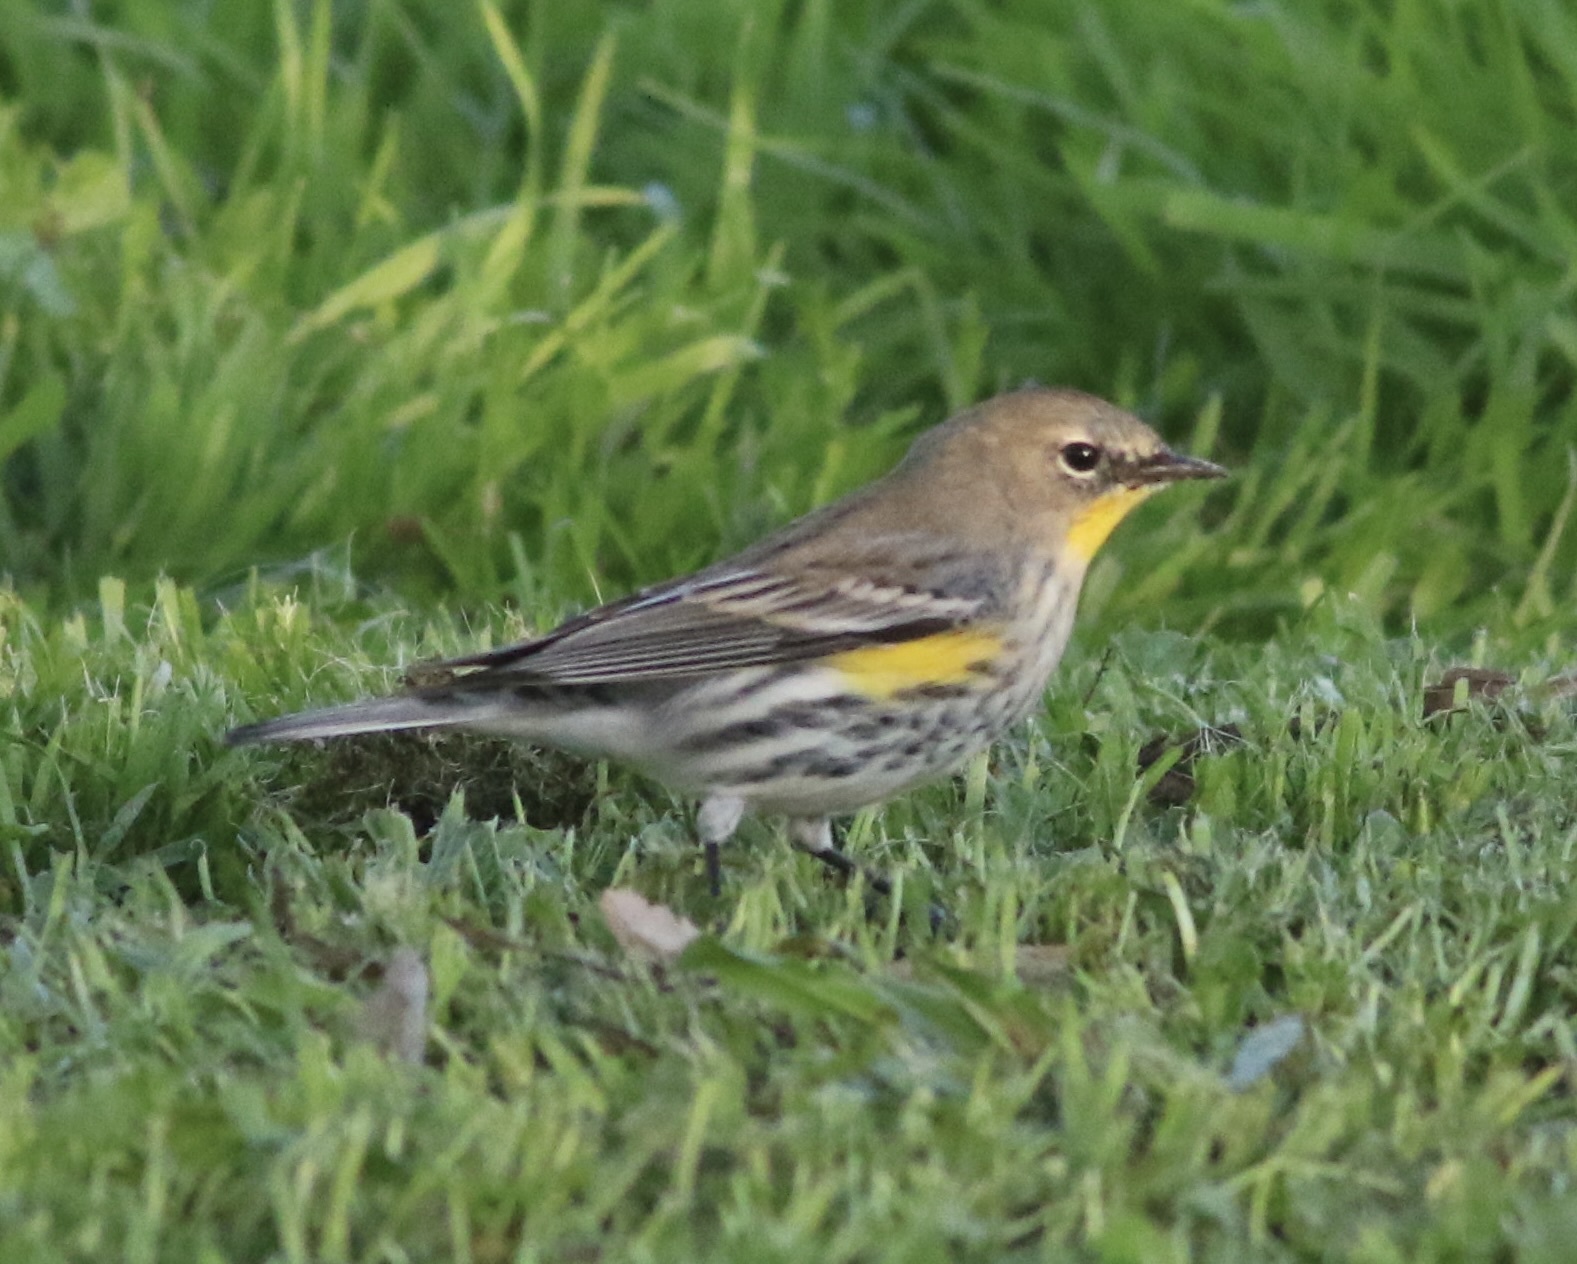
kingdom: Animalia
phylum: Chordata
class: Aves
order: Passeriformes
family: Parulidae
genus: Setophaga
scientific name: Setophaga coronata
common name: Myrtle warbler
